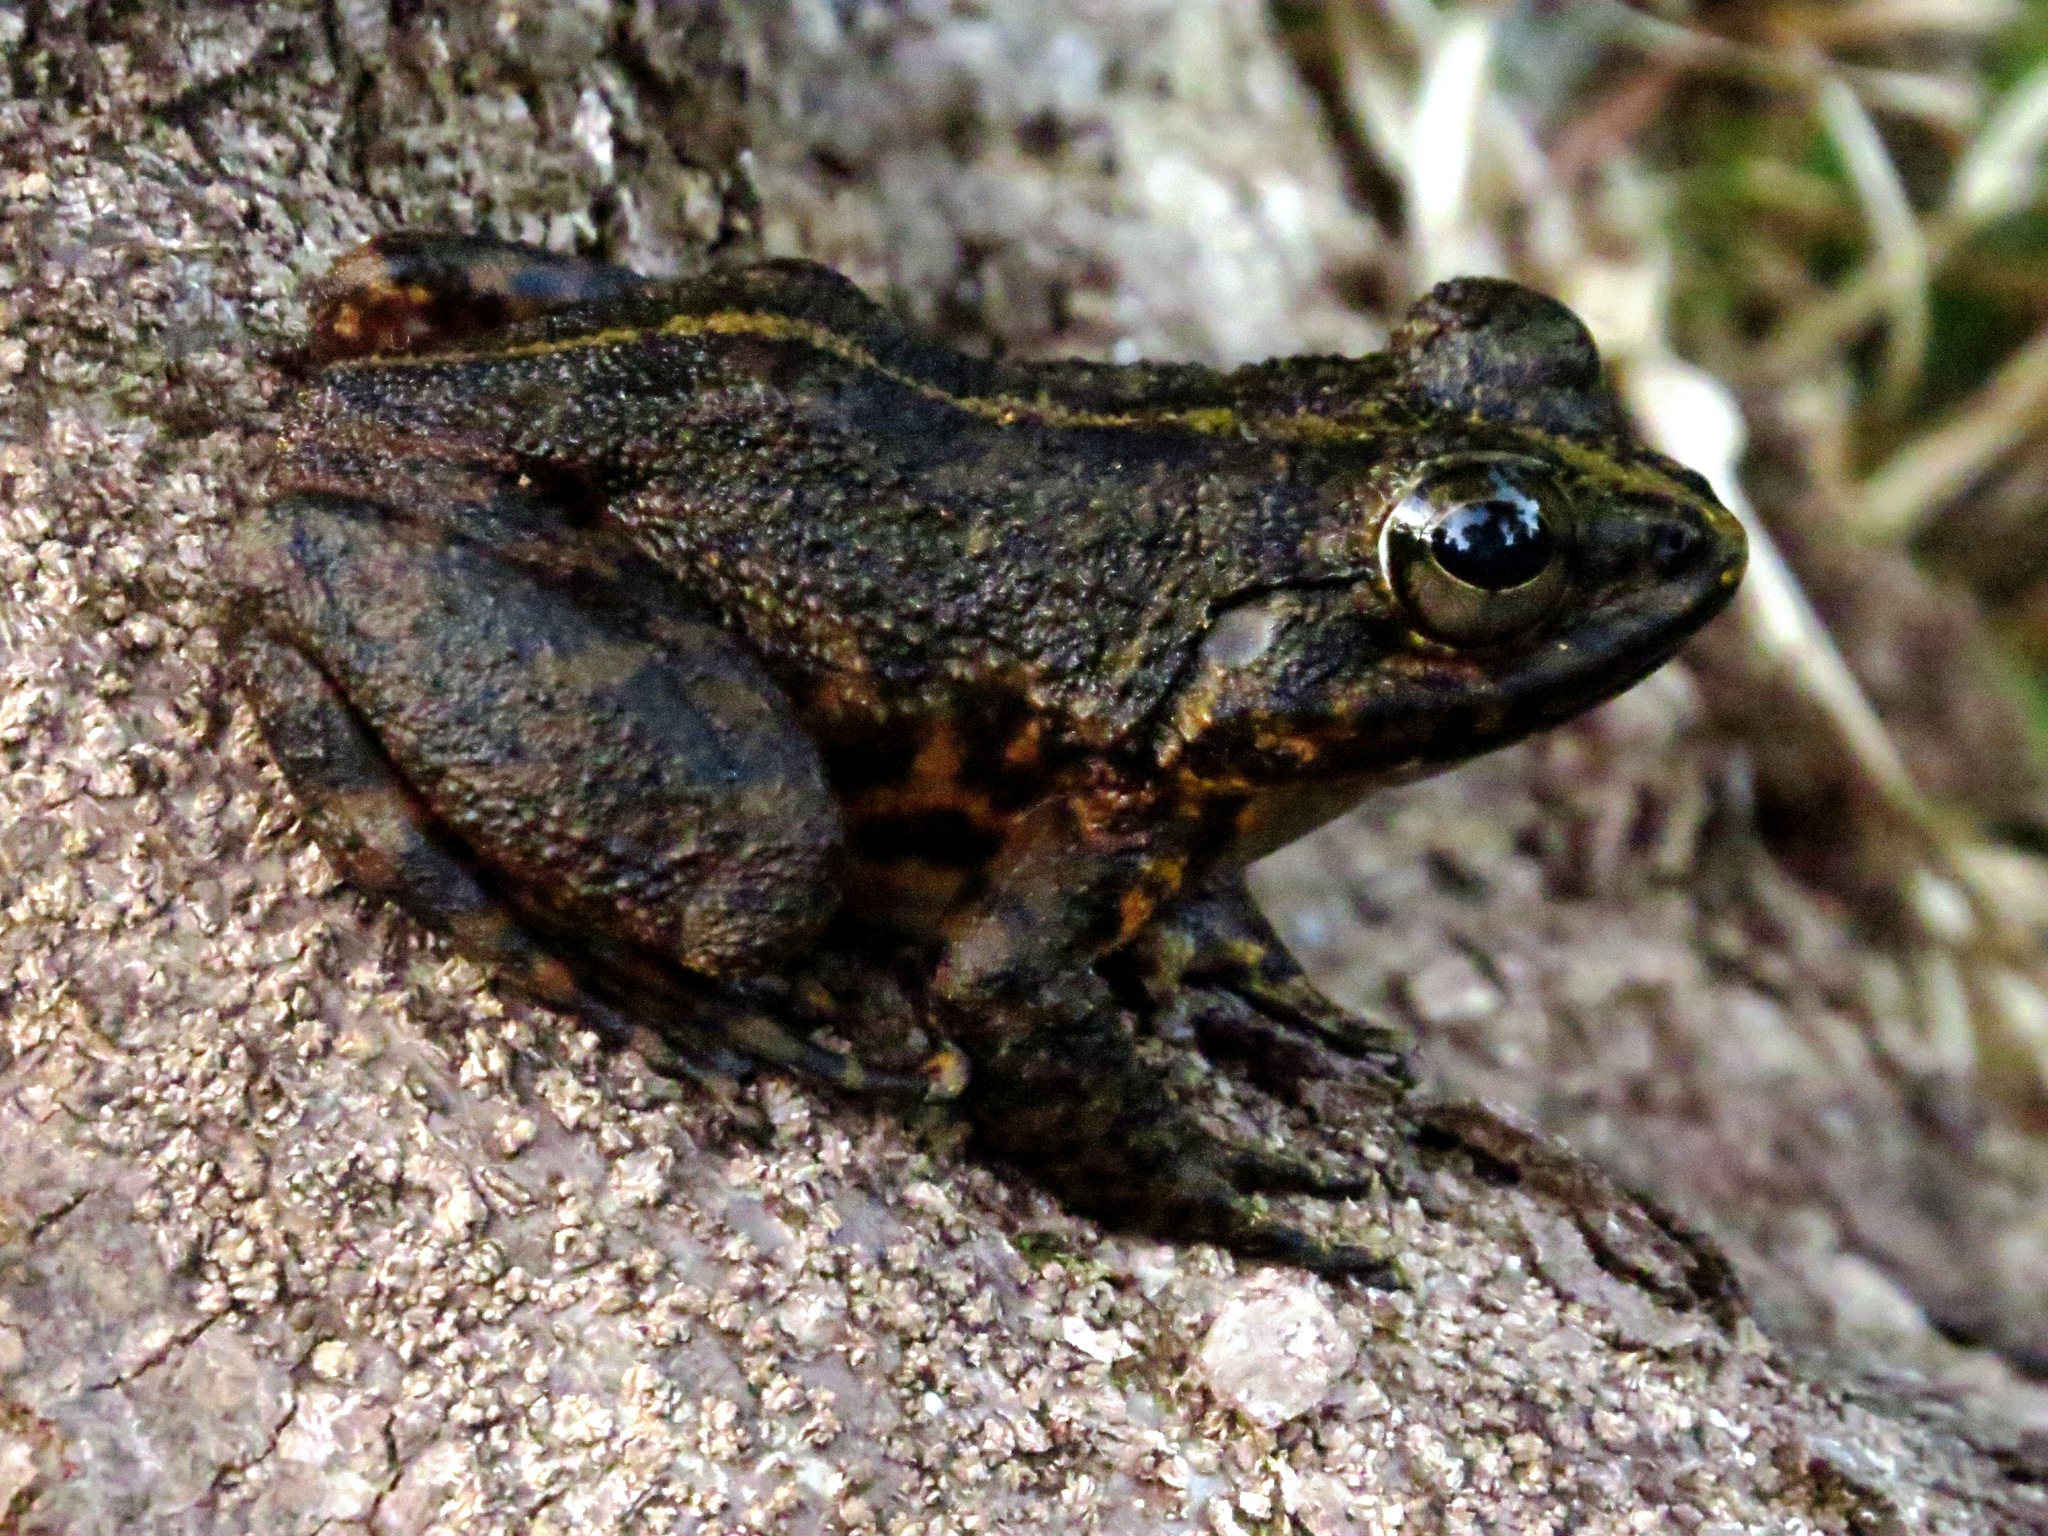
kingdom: Animalia
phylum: Chordata
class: Amphibia
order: Anura
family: Mantellidae
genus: Mantidactylus
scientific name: Mantidactylus grandidieri
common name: Grandidier's madagascar frog
